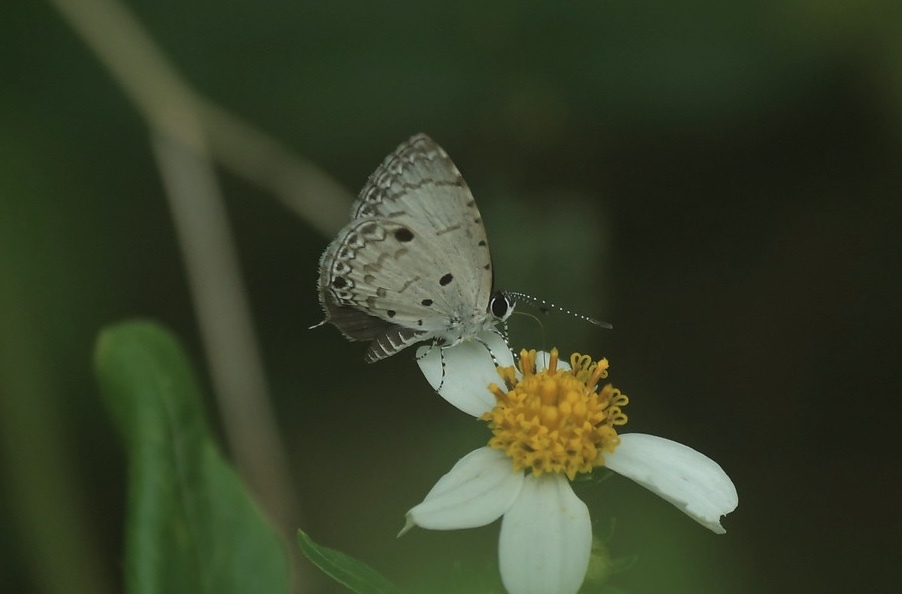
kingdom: Animalia
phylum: Arthropoda
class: Insecta
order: Lepidoptera
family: Lycaenidae
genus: Megisba
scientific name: Megisba malaya
